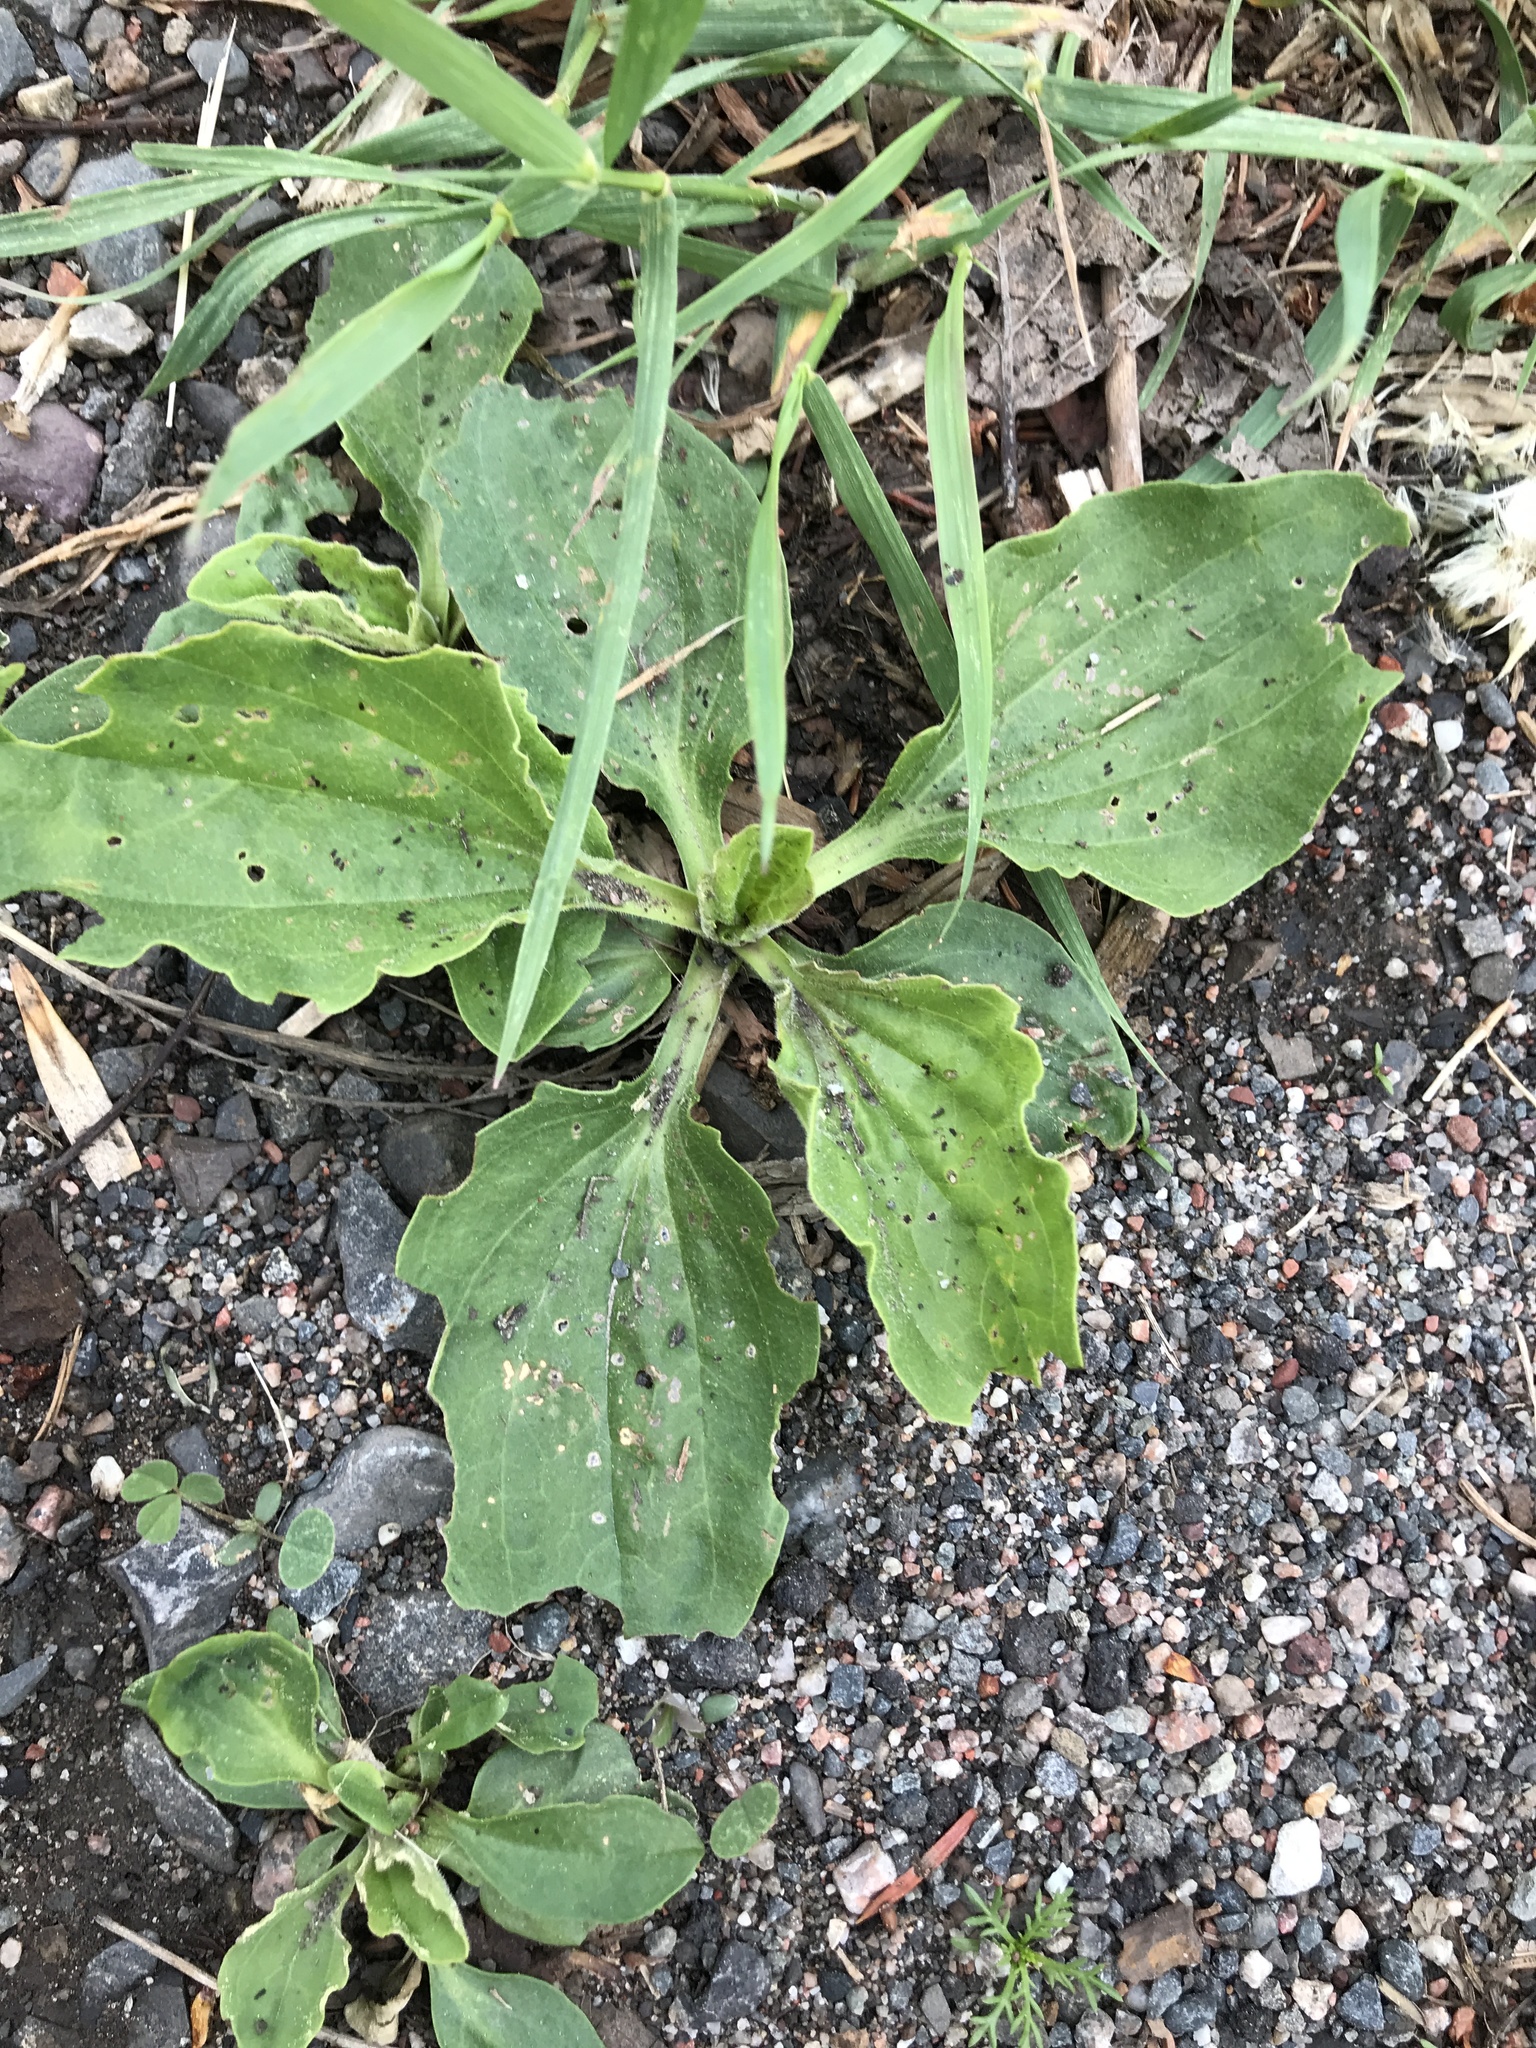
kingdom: Plantae
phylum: Tracheophyta
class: Magnoliopsida
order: Lamiales
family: Plantaginaceae
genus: Plantago
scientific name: Plantago major
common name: Common plantain
